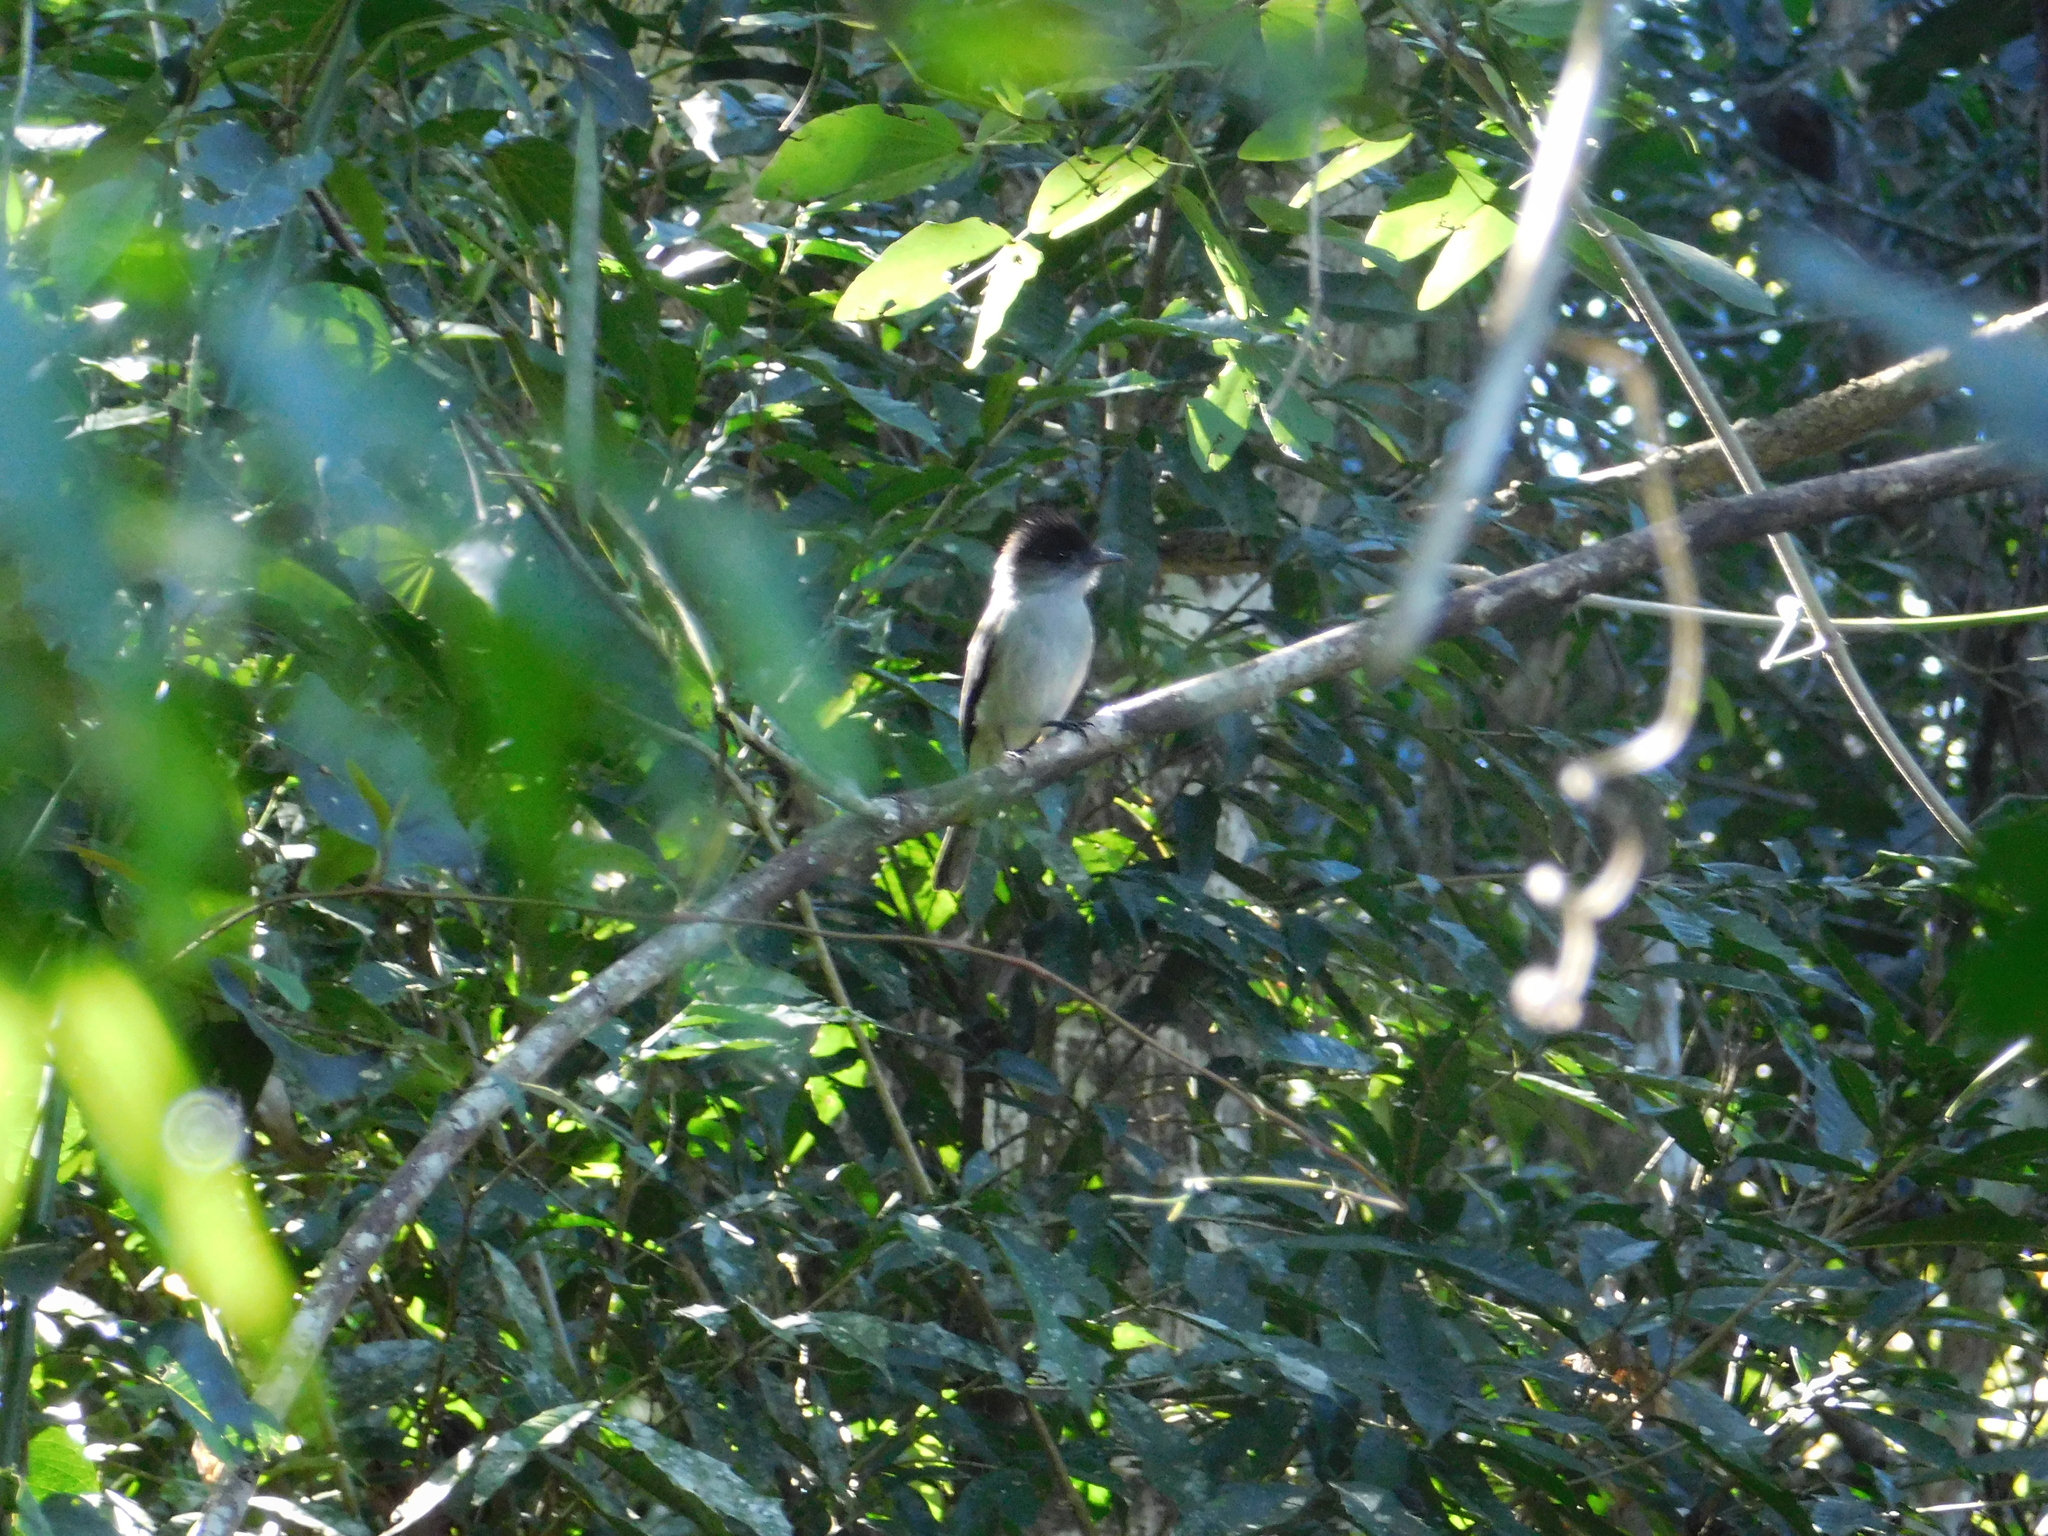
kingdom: Animalia
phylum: Chordata
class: Aves
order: Passeriformes
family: Tyrannidae
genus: Sirystes
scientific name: Sirystes sibilator
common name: Sirystes
